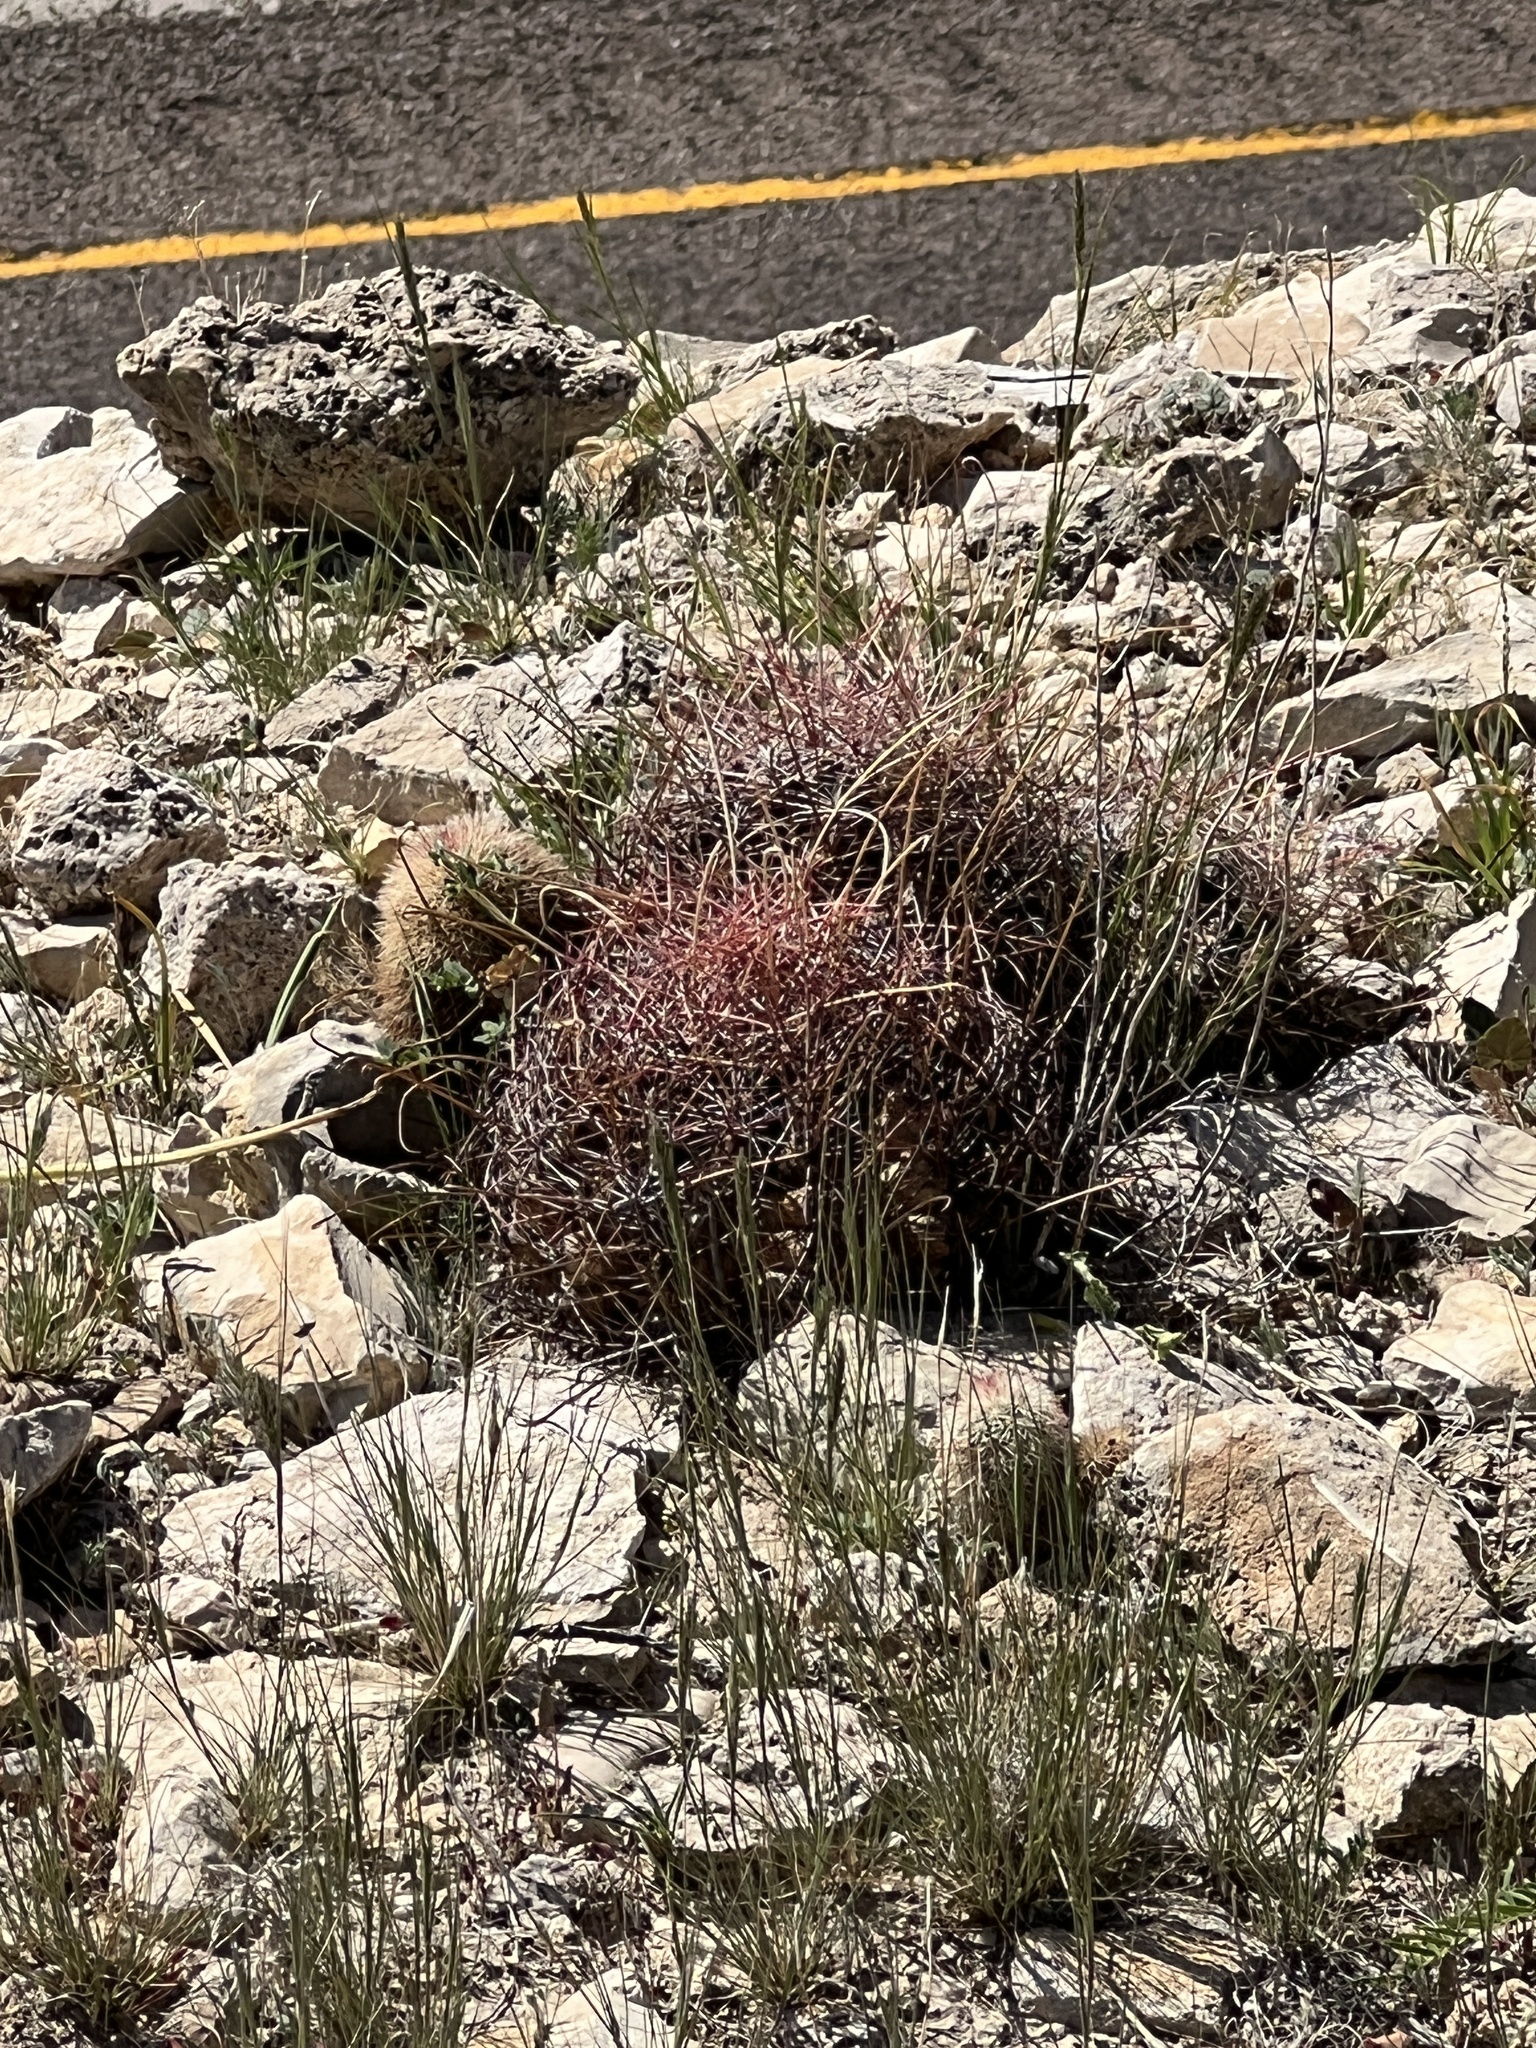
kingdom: Plantae
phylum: Tracheophyta
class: Magnoliopsida
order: Caryophyllales
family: Cactaceae
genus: Bisnaga
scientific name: Bisnaga hamatacantha
